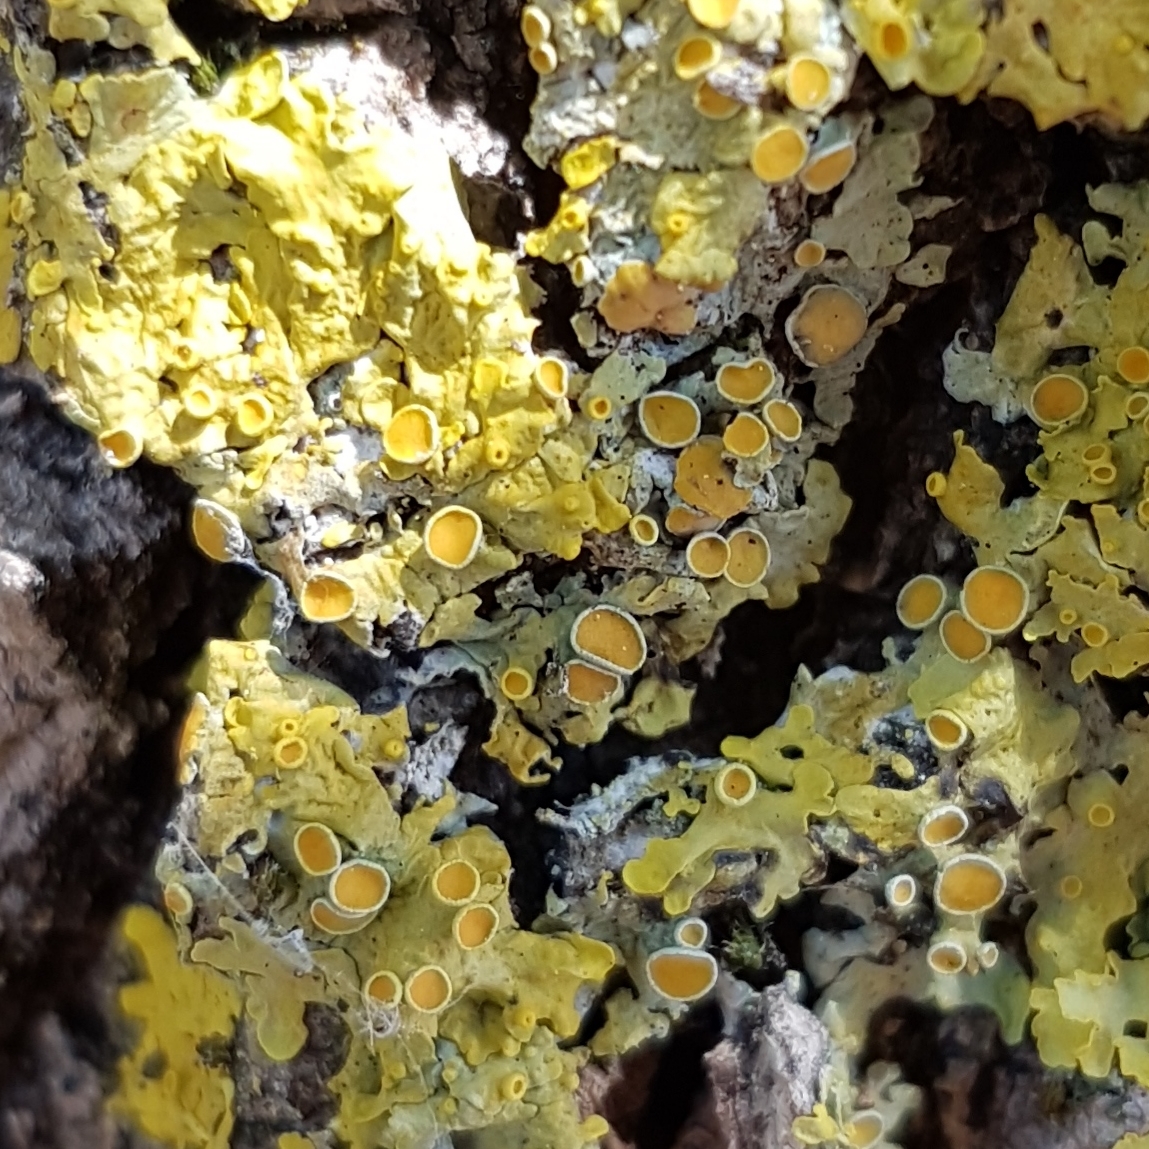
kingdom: Fungi
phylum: Ascomycota
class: Lecanoromycetes
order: Teloschistales
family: Teloschistaceae
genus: Xanthoria
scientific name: Xanthoria parietina
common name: Common orange lichen
